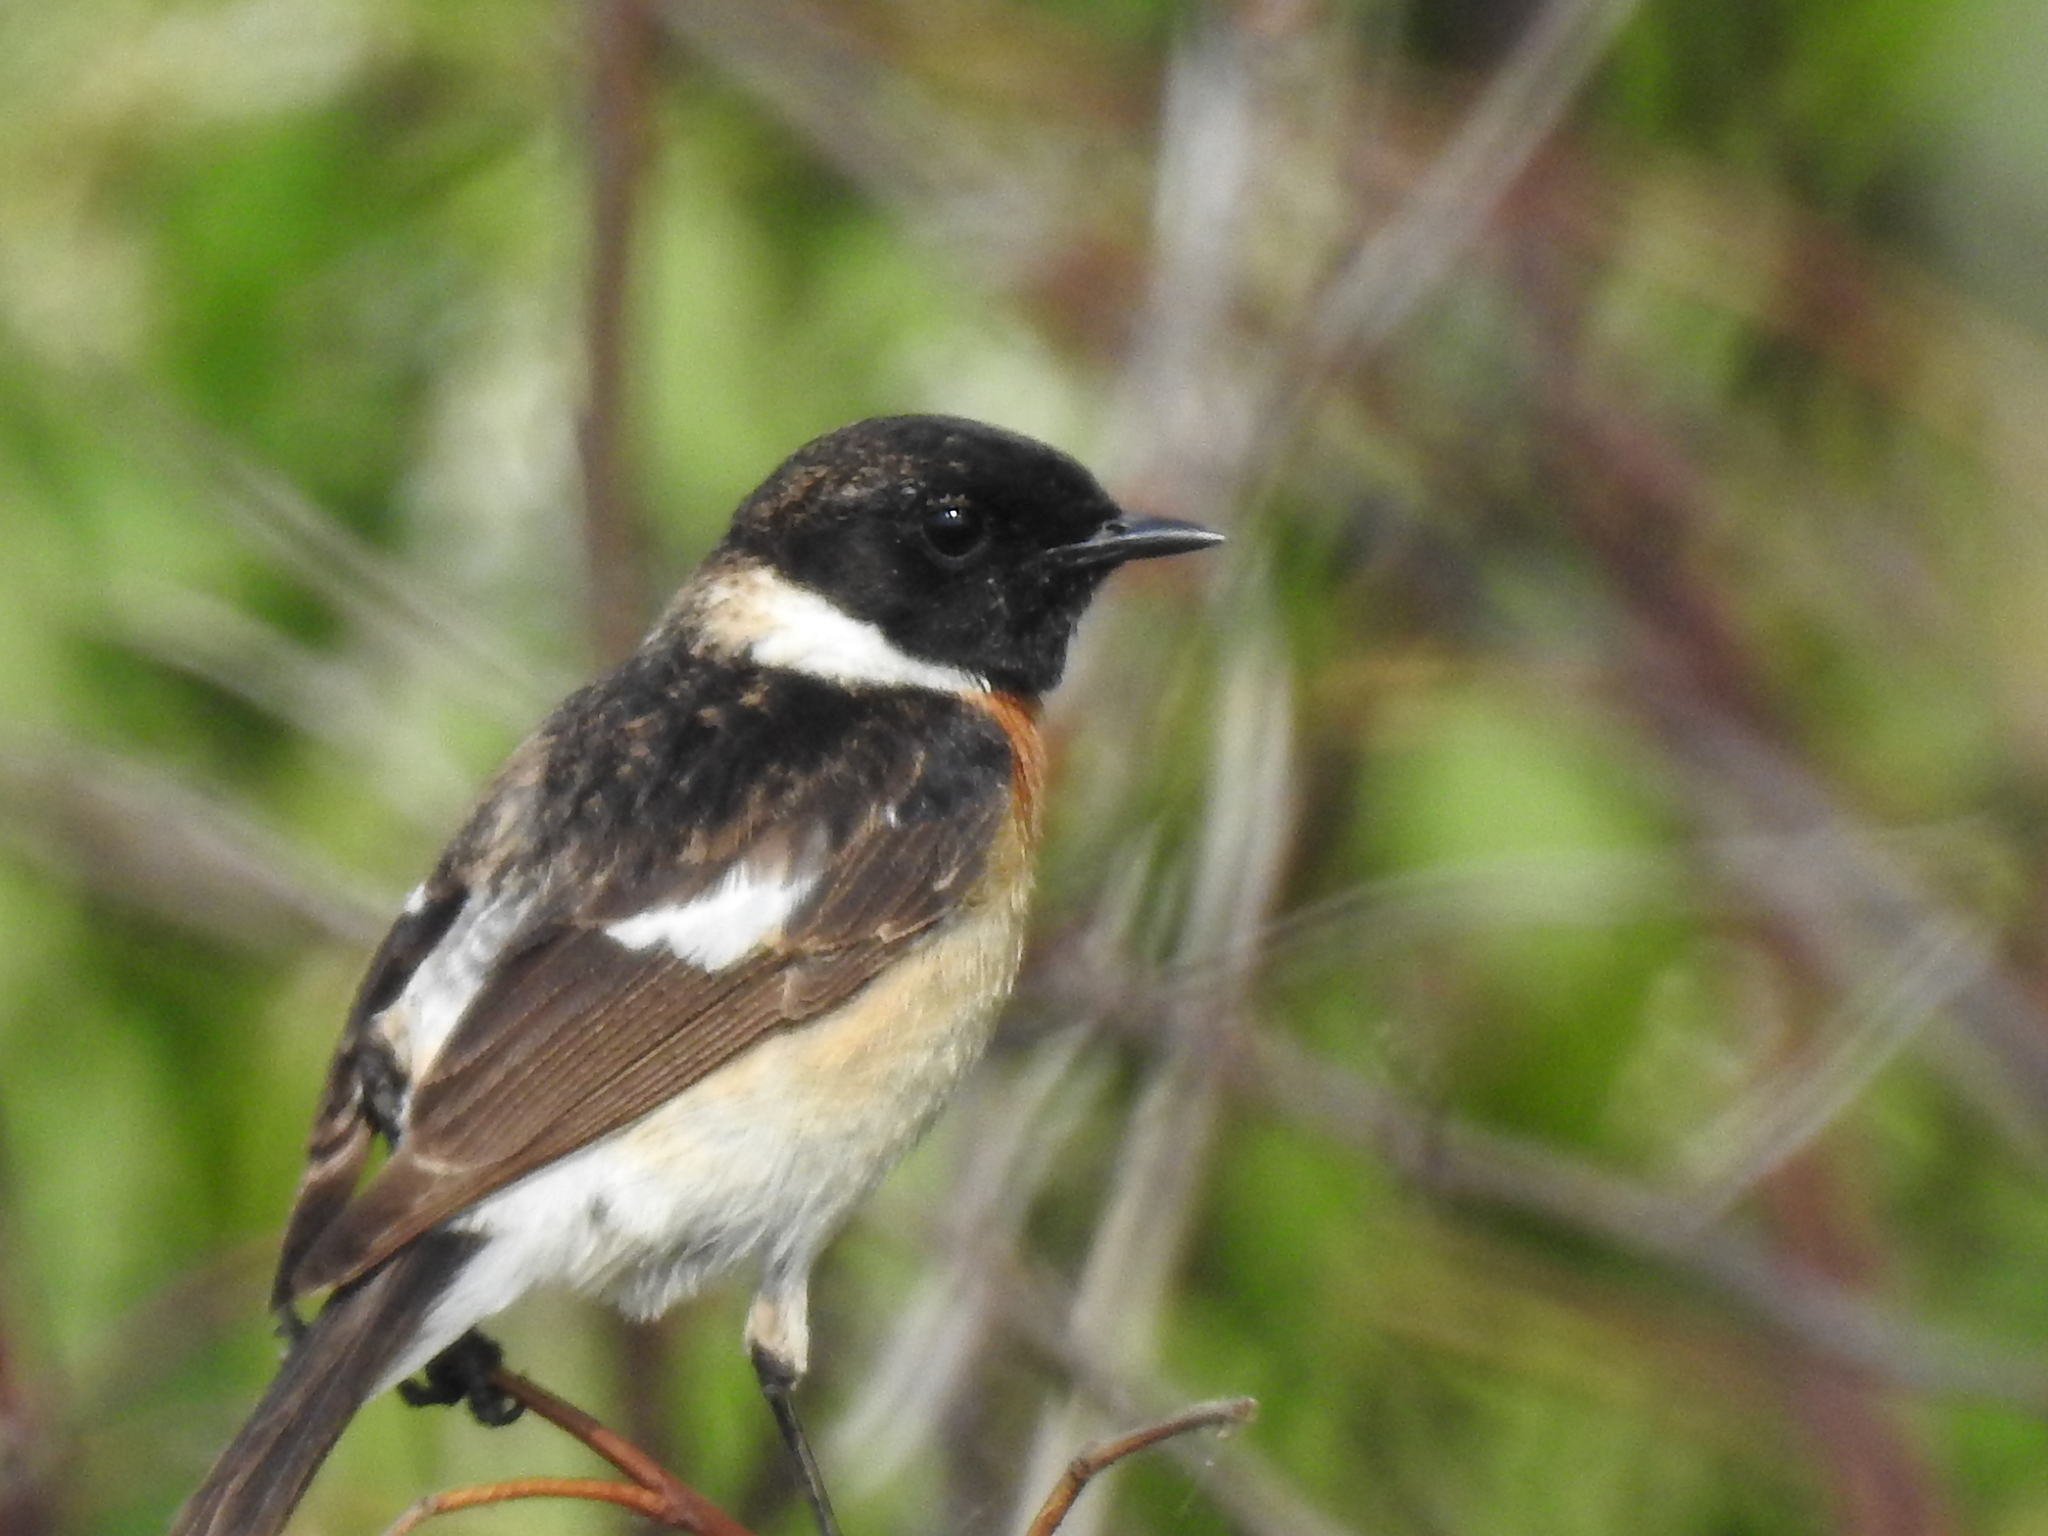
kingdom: Animalia
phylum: Chordata
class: Aves
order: Passeriformes
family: Muscicapidae
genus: Saxicola
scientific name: Saxicola maurus
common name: Siberian stonechat
